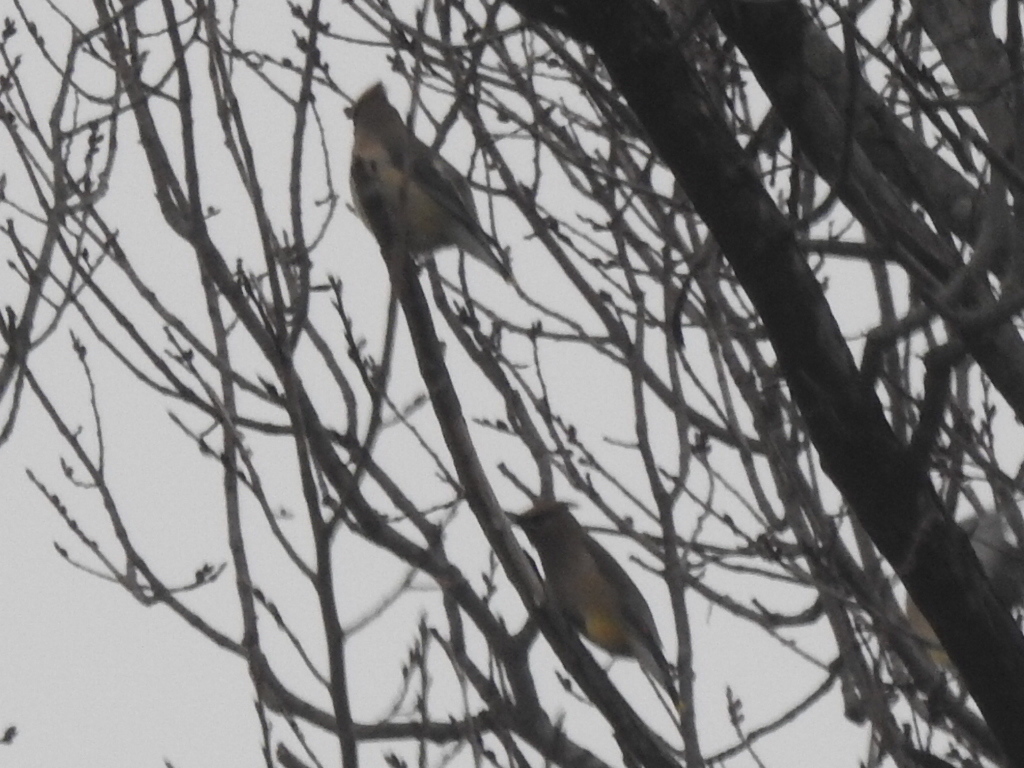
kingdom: Animalia
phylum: Chordata
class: Aves
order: Passeriformes
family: Bombycillidae
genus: Bombycilla
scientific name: Bombycilla cedrorum
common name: Cedar waxwing
